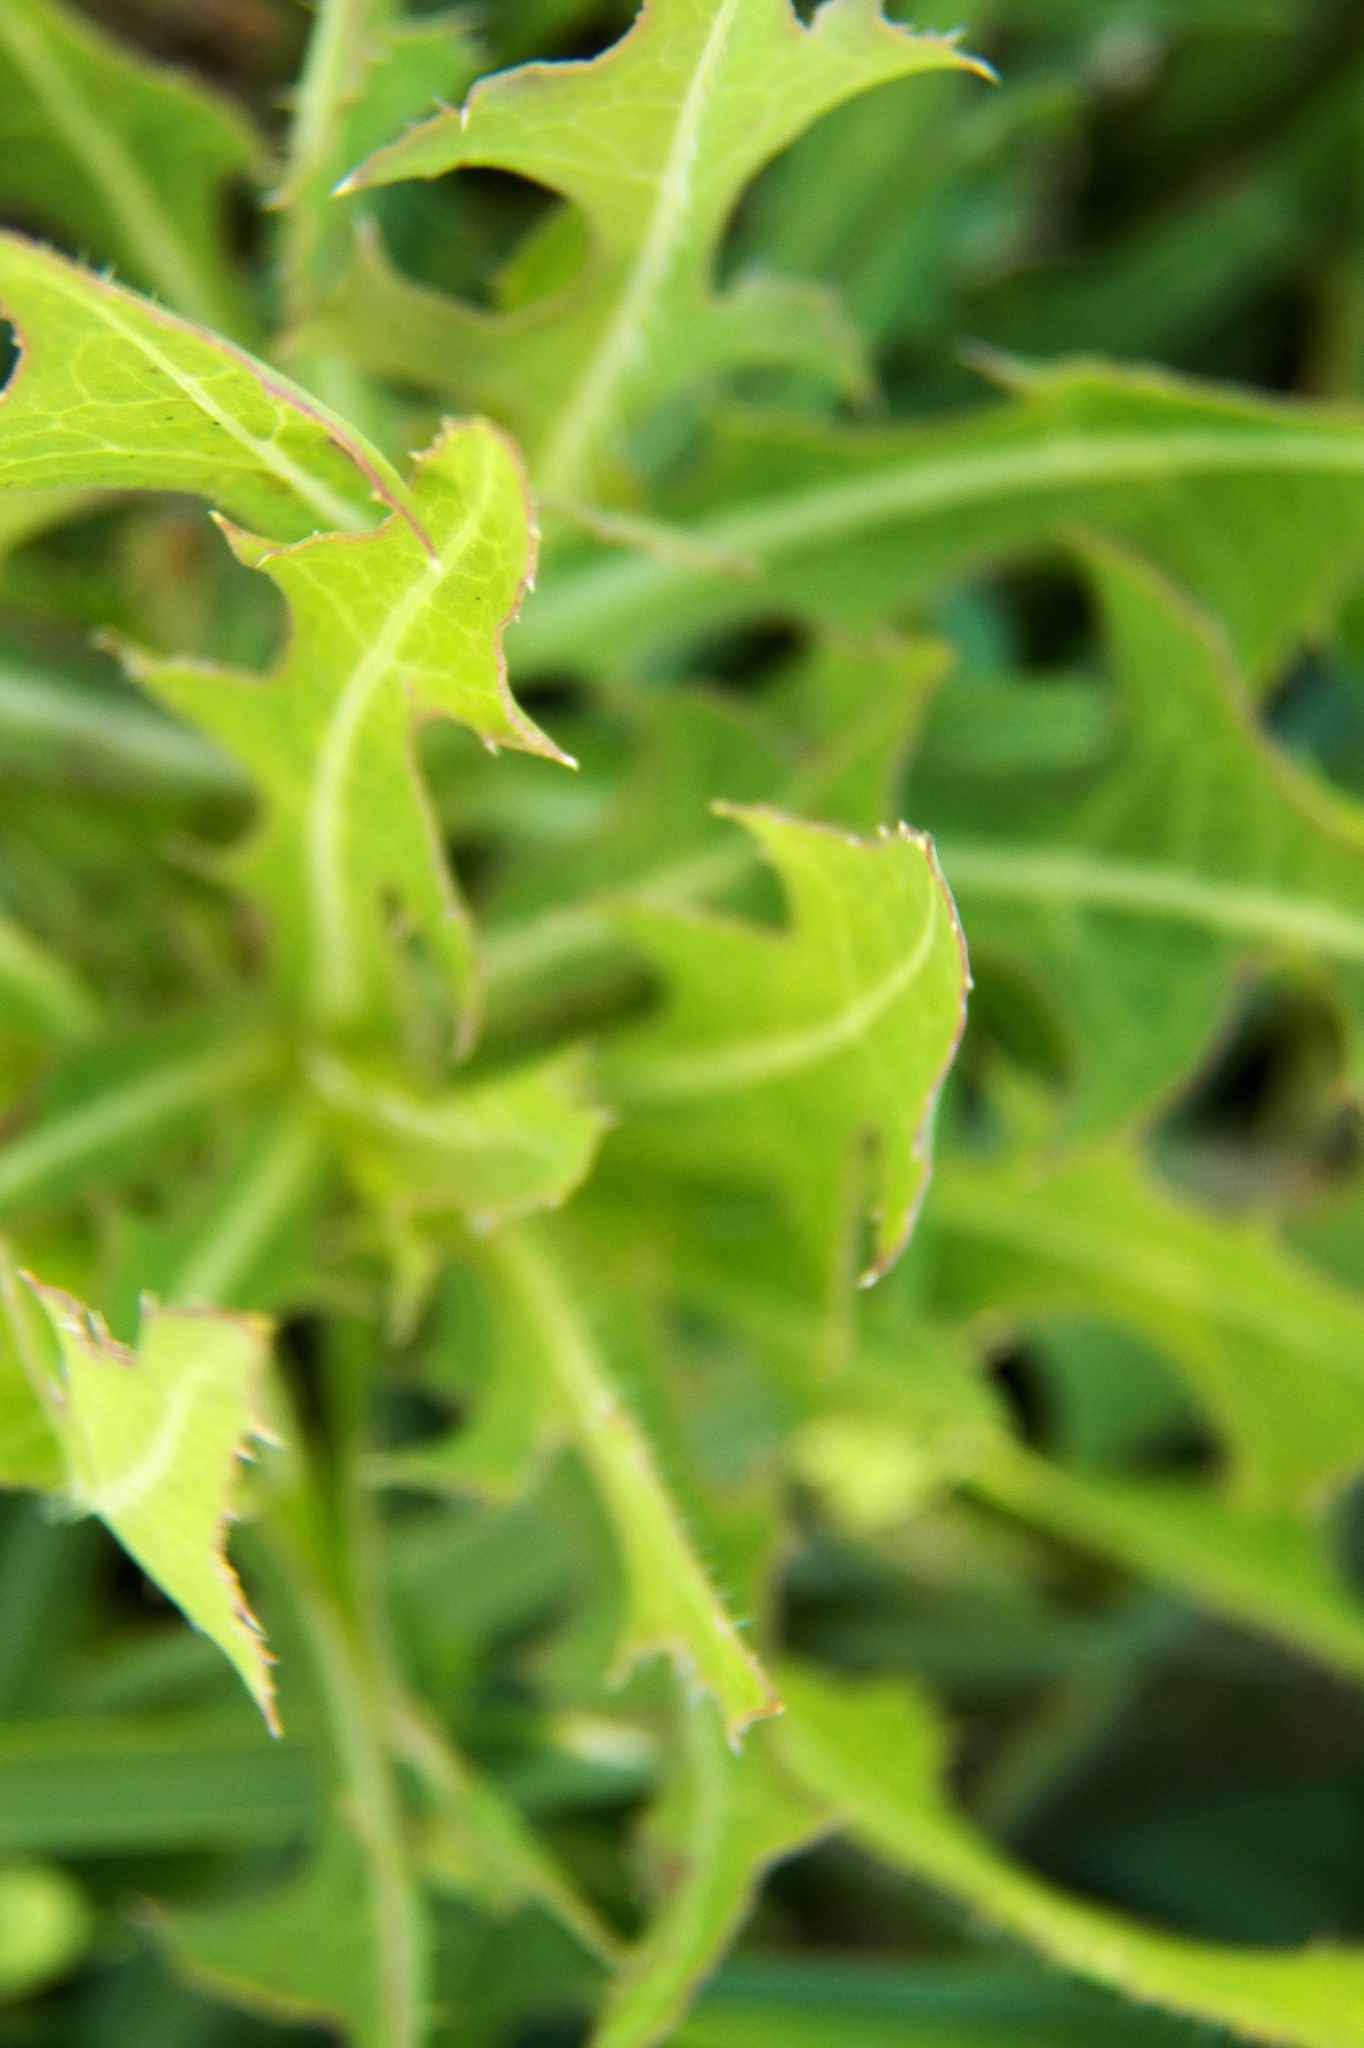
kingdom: Plantae
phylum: Tracheophyta
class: Magnoliopsida
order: Asterales
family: Asteraceae
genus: Lactuca
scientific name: Lactuca serriola
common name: Prickly lettuce
